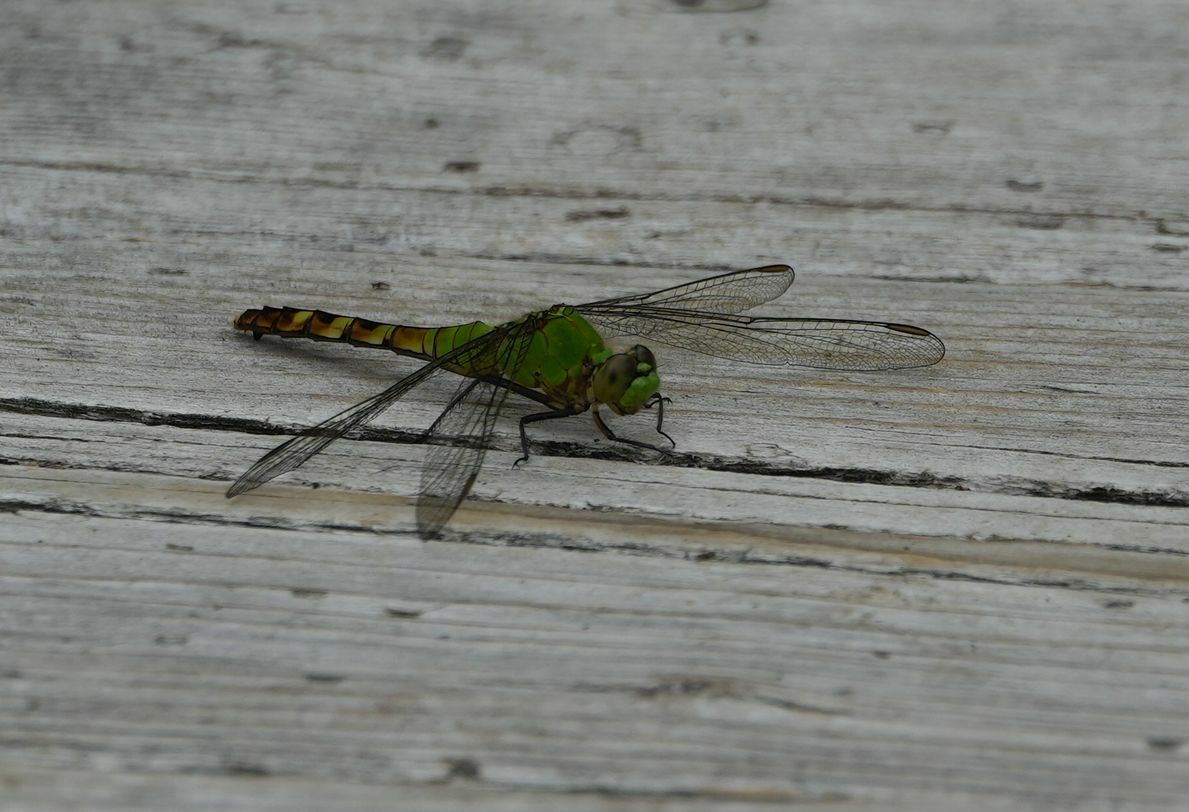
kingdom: Animalia
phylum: Arthropoda
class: Insecta
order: Odonata
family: Libellulidae
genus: Erythemis
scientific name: Erythemis simplicicollis
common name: Eastern pondhawk
